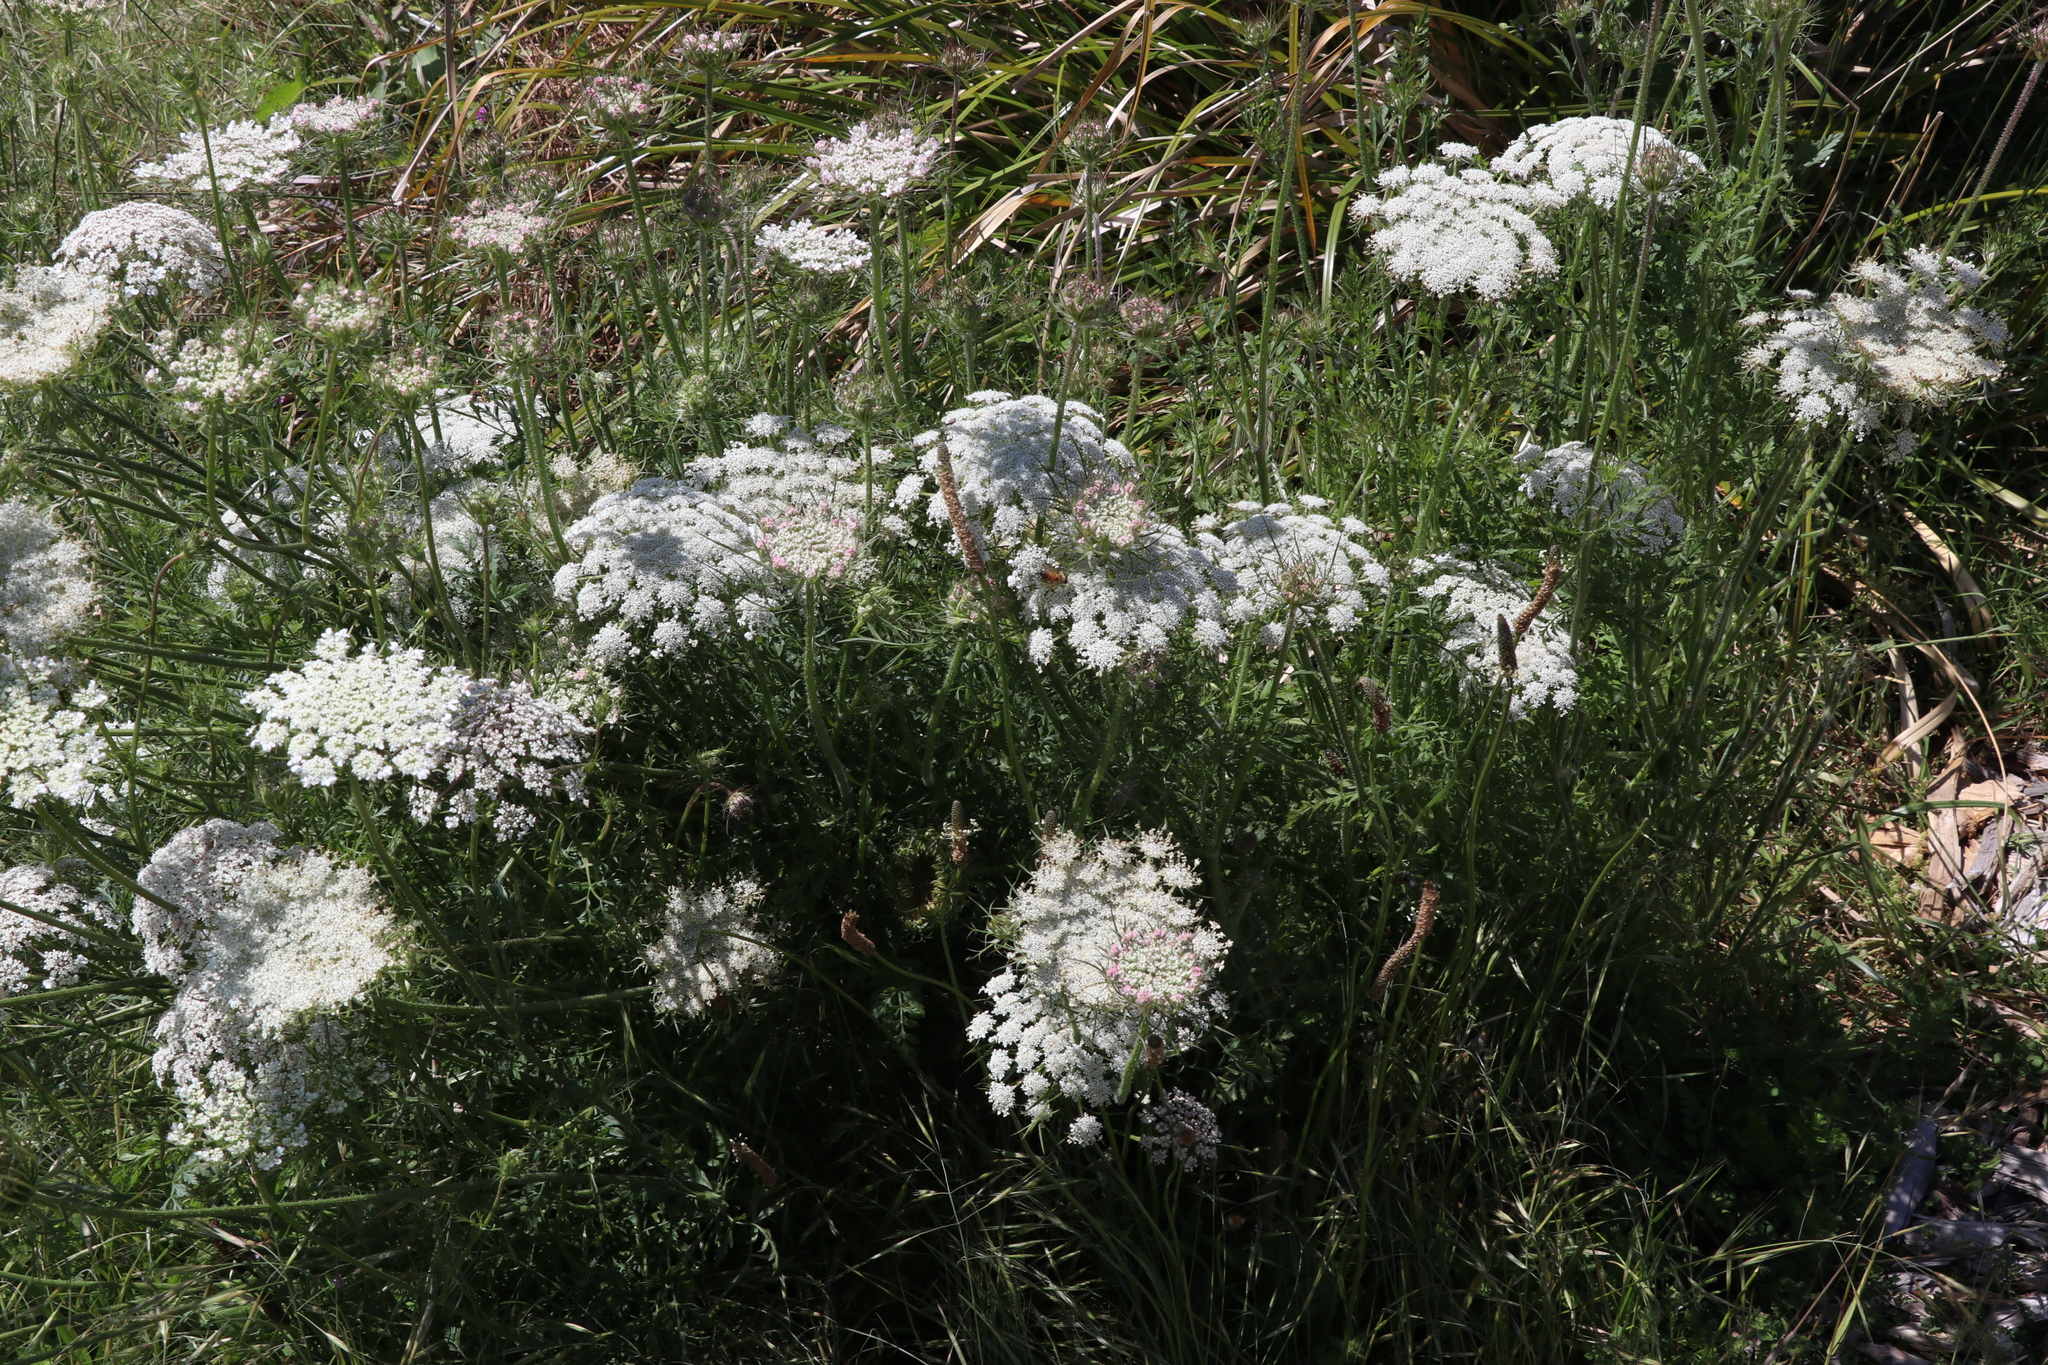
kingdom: Plantae
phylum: Tracheophyta
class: Magnoliopsida
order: Apiales
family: Apiaceae
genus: Daucus
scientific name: Daucus carota
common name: Wild carrot
